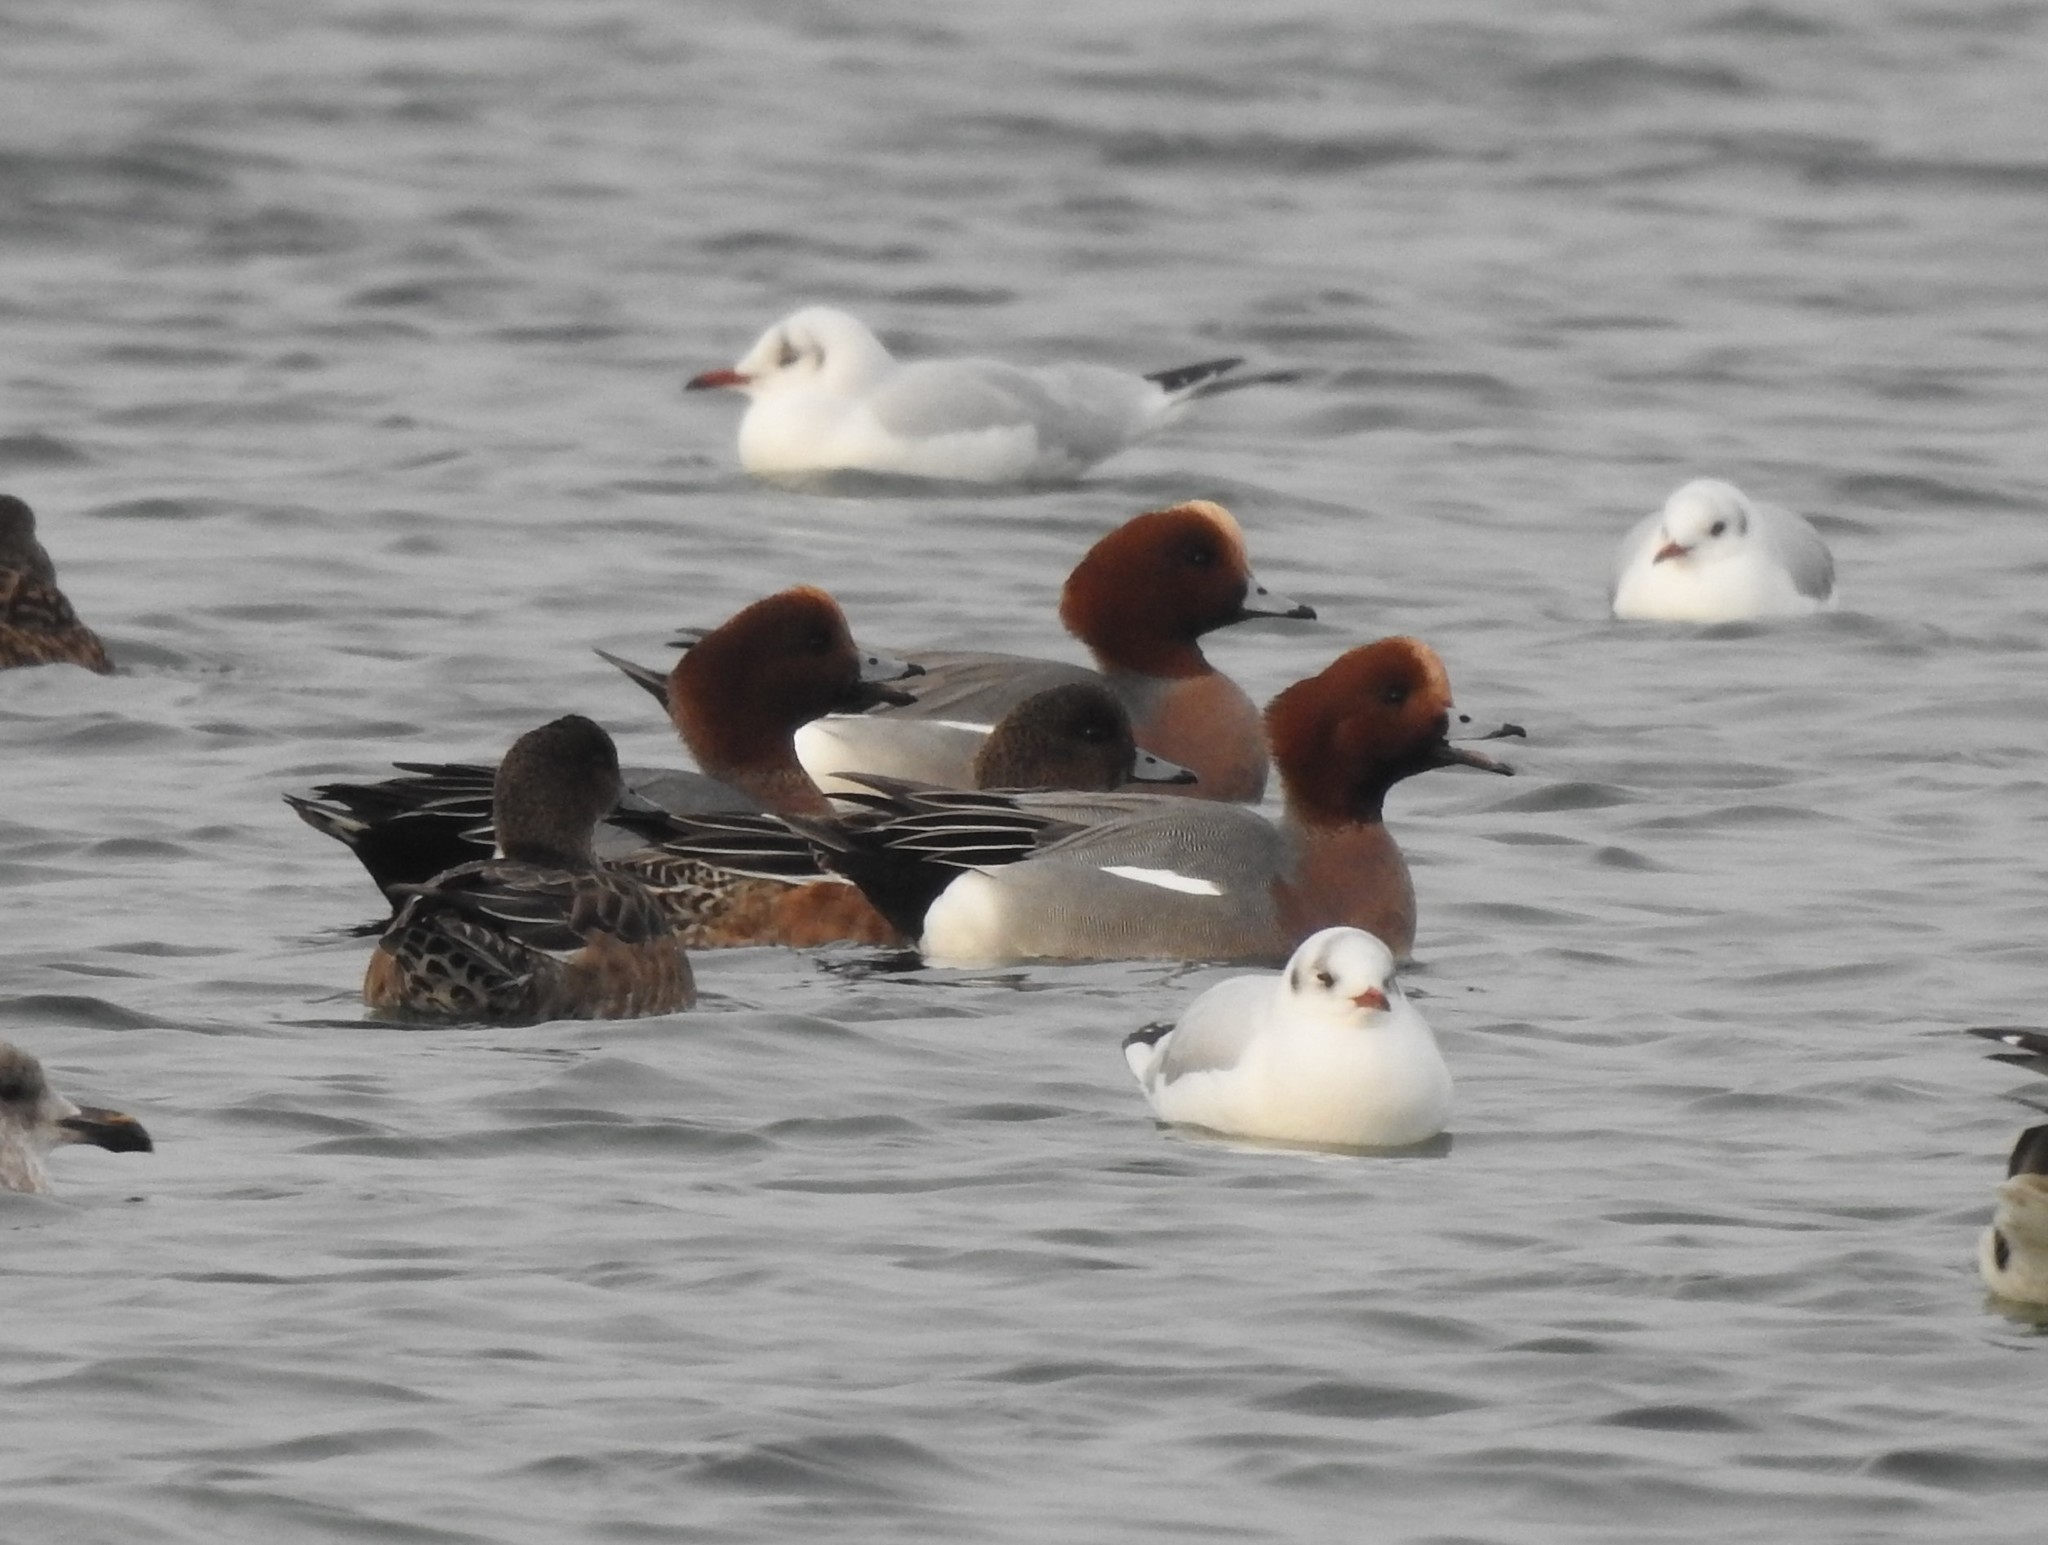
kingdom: Animalia
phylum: Chordata
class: Aves
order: Anseriformes
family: Anatidae
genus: Mareca
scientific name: Mareca penelope
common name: Eurasian wigeon
